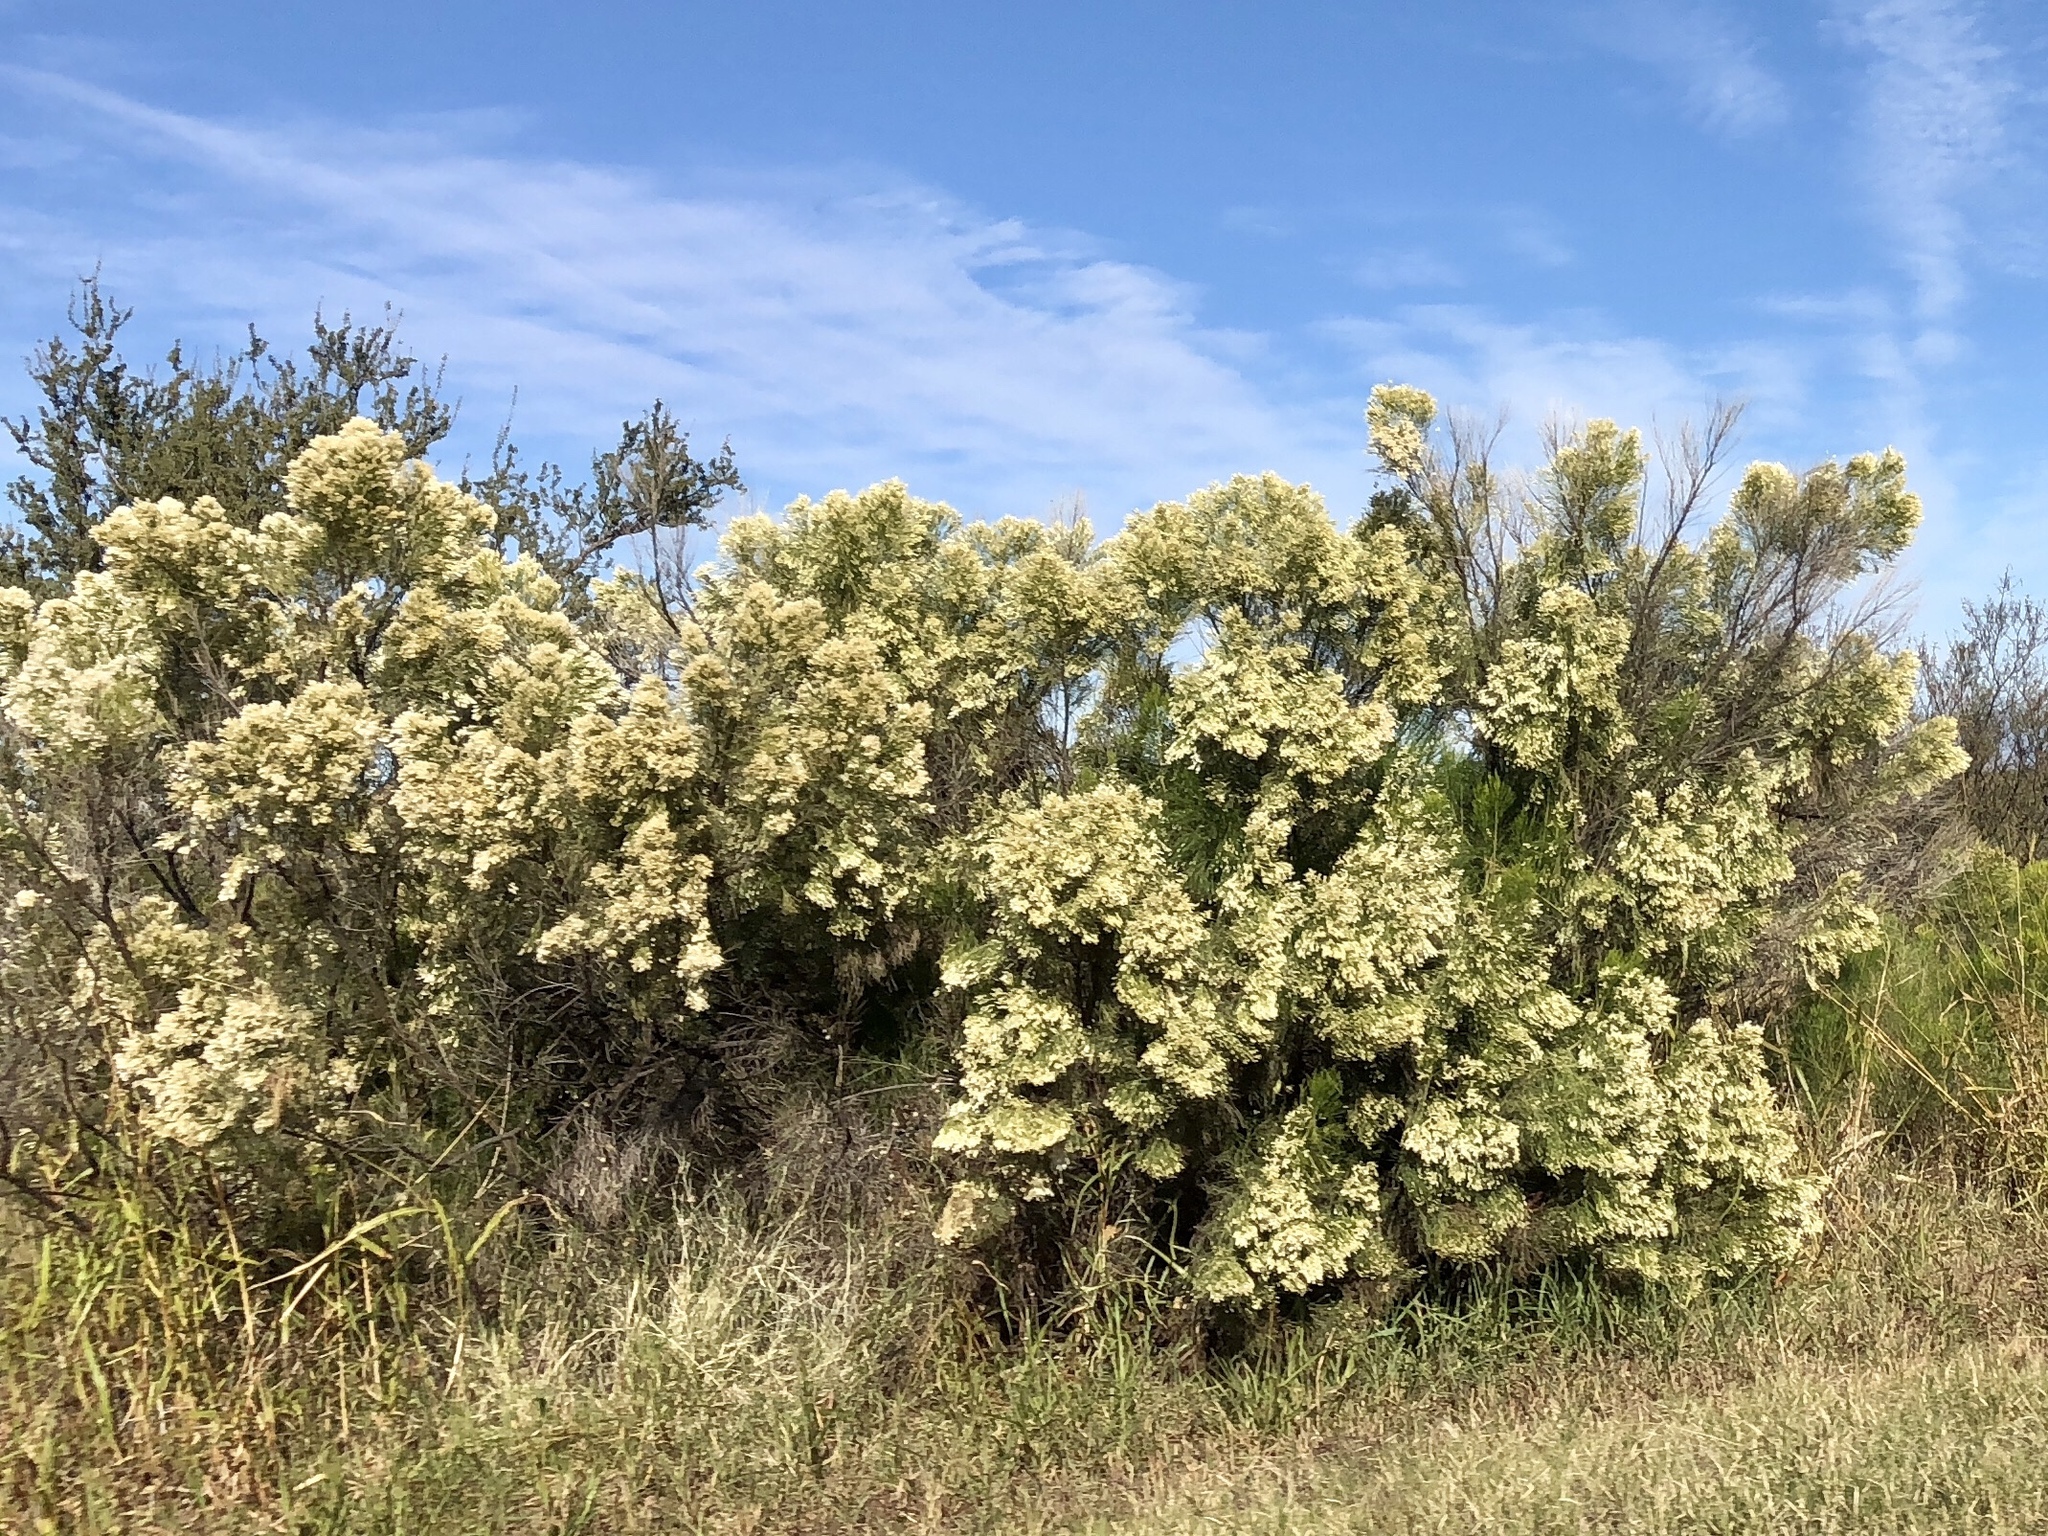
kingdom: Plantae
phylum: Tracheophyta
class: Magnoliopsida
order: Asterales
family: Asteraceae
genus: Baccharis
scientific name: Baccharis sarothroides
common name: Desert-broom
